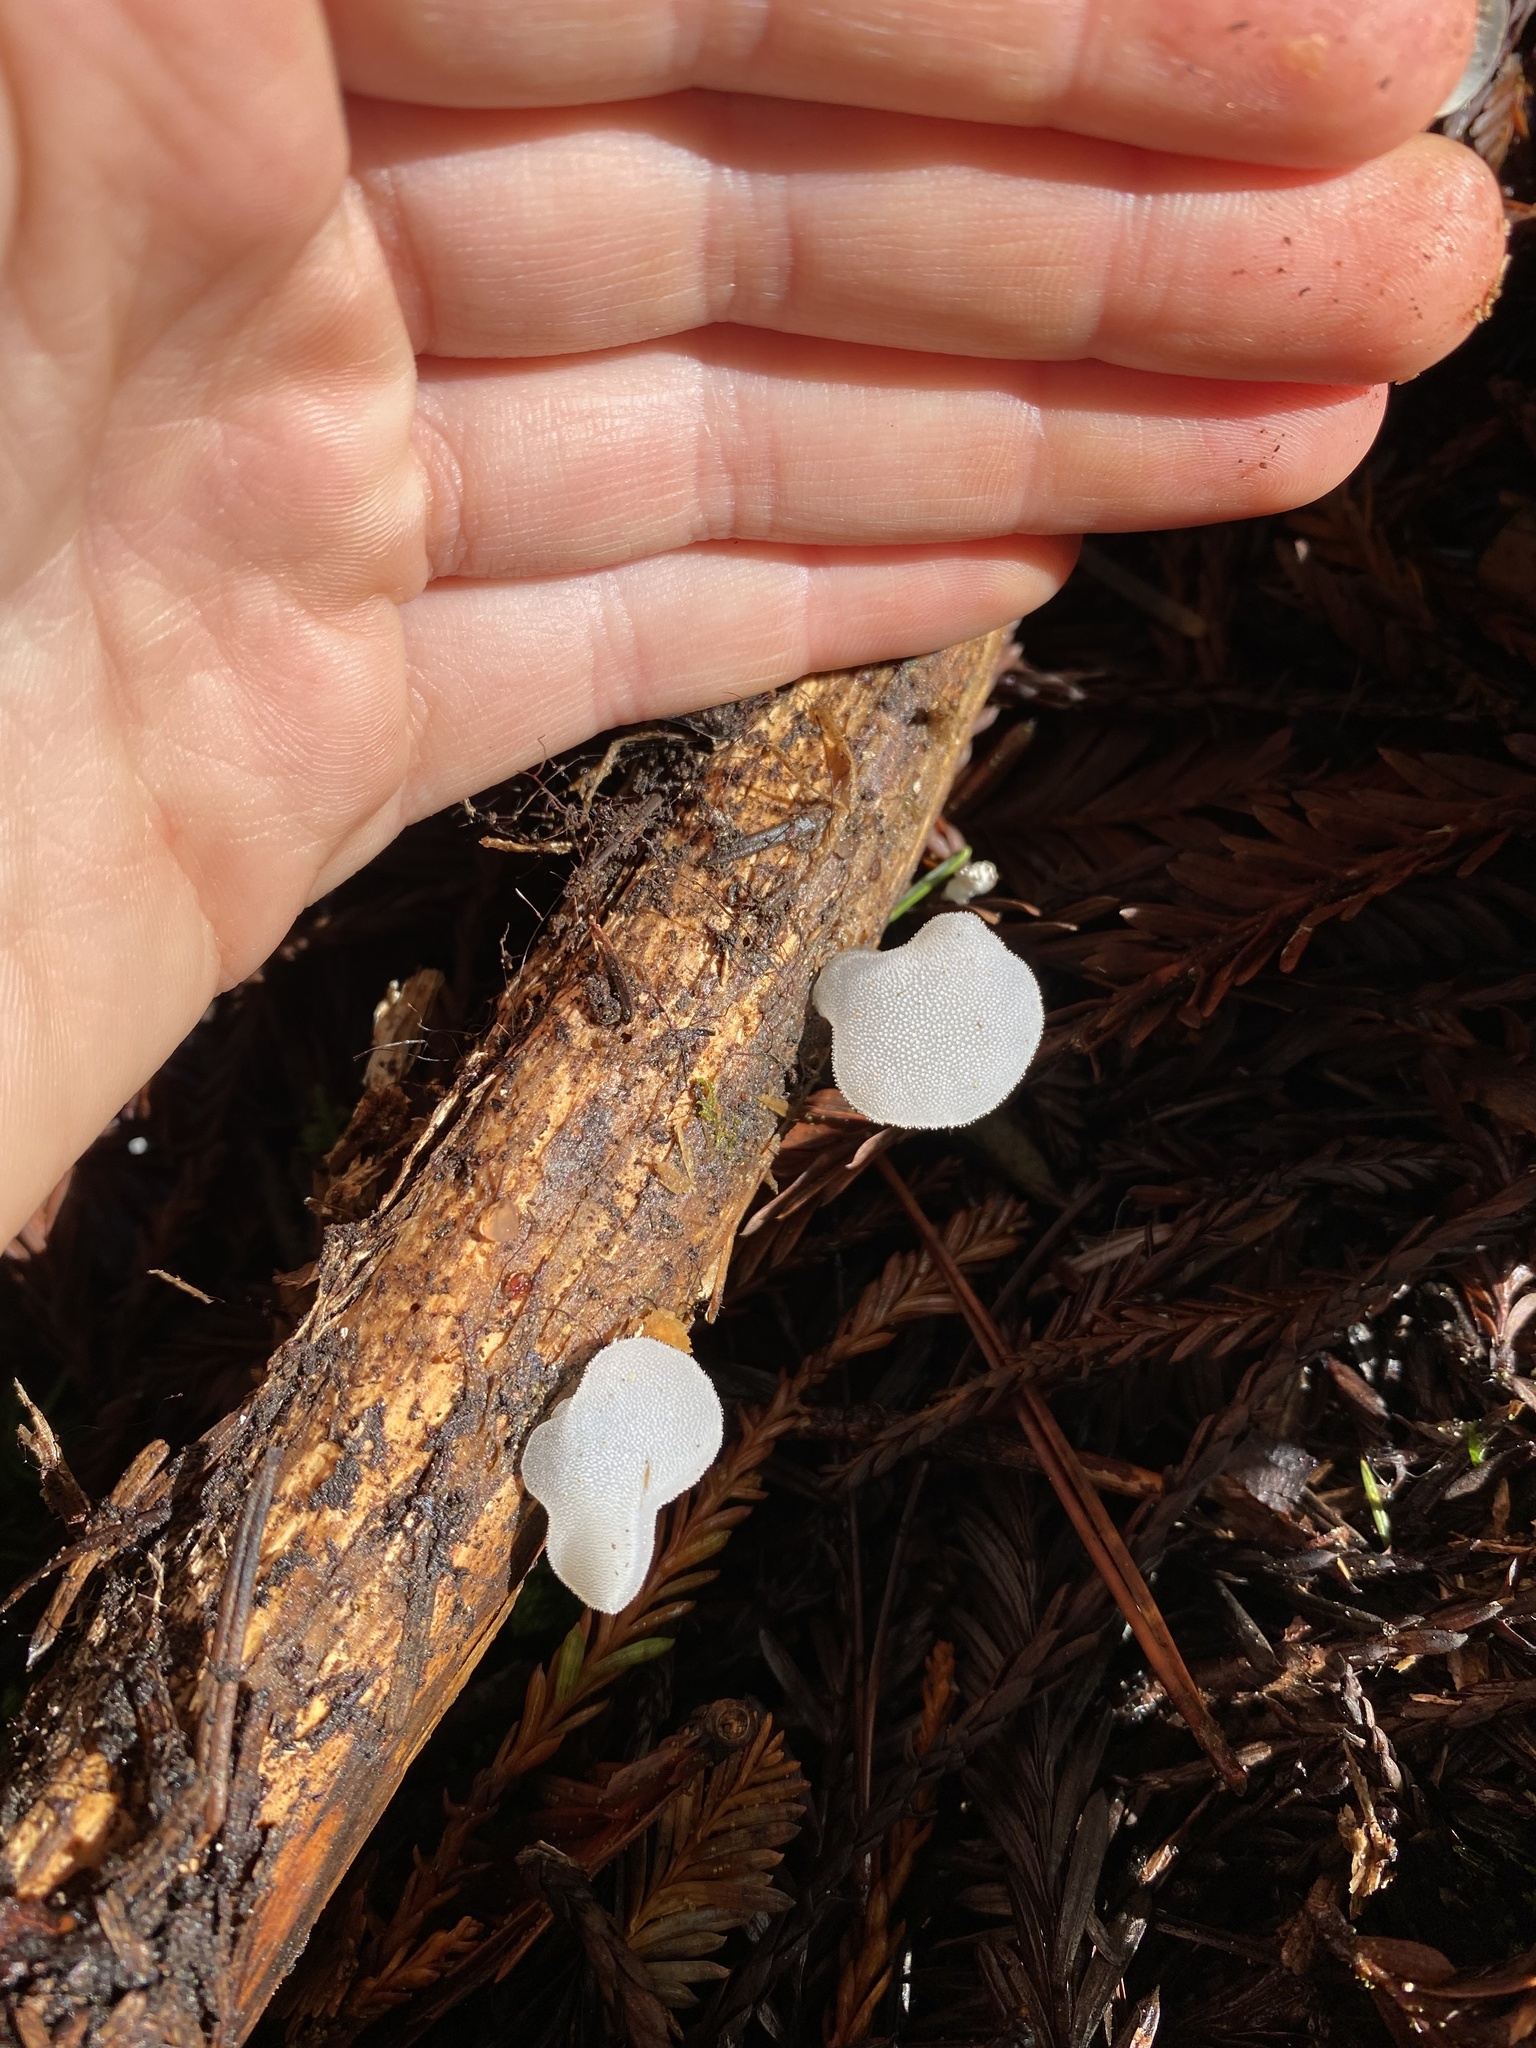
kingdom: Fungi
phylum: Basidiomycota
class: Agaricomycetes
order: Auriculariales
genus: Pseudohydnum
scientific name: Pseudohydnum gelatinosum
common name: Jelly tongue
